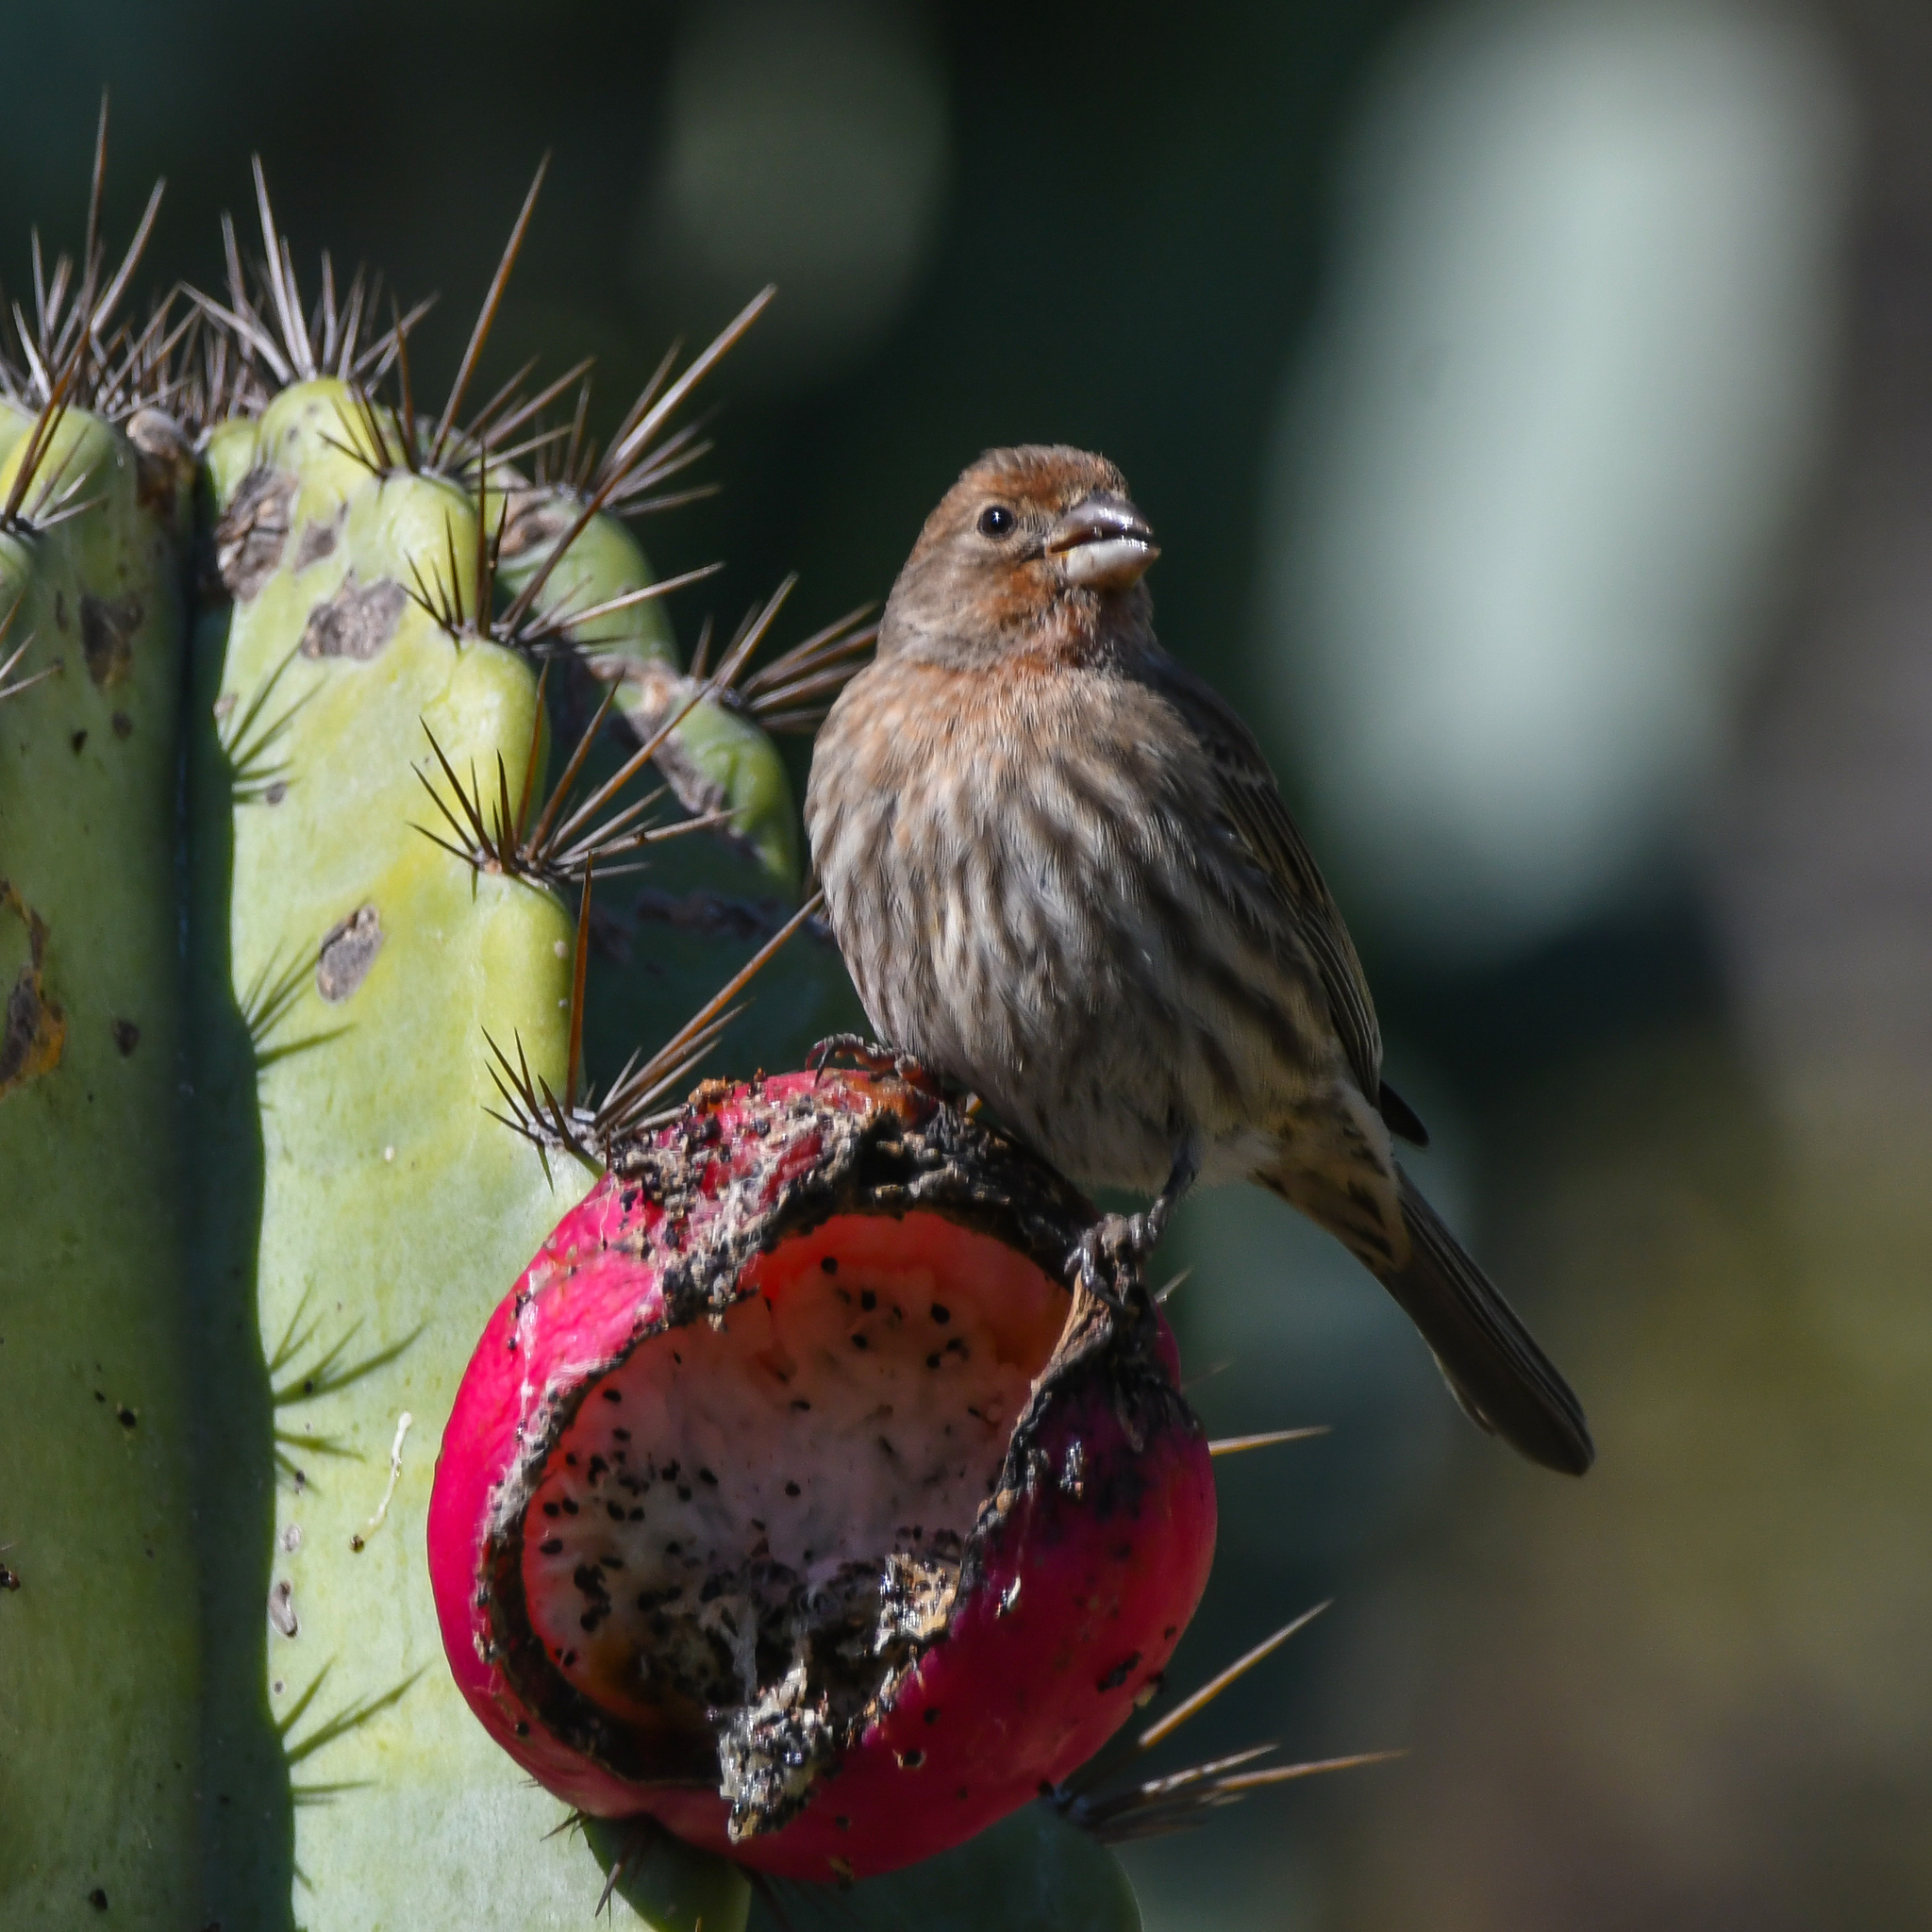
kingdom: Animalia
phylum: Chordata
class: Aves
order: Passeriformes
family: Fringillidae
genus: Haemorhous
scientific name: Haemorhous mexicanus
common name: House finch
